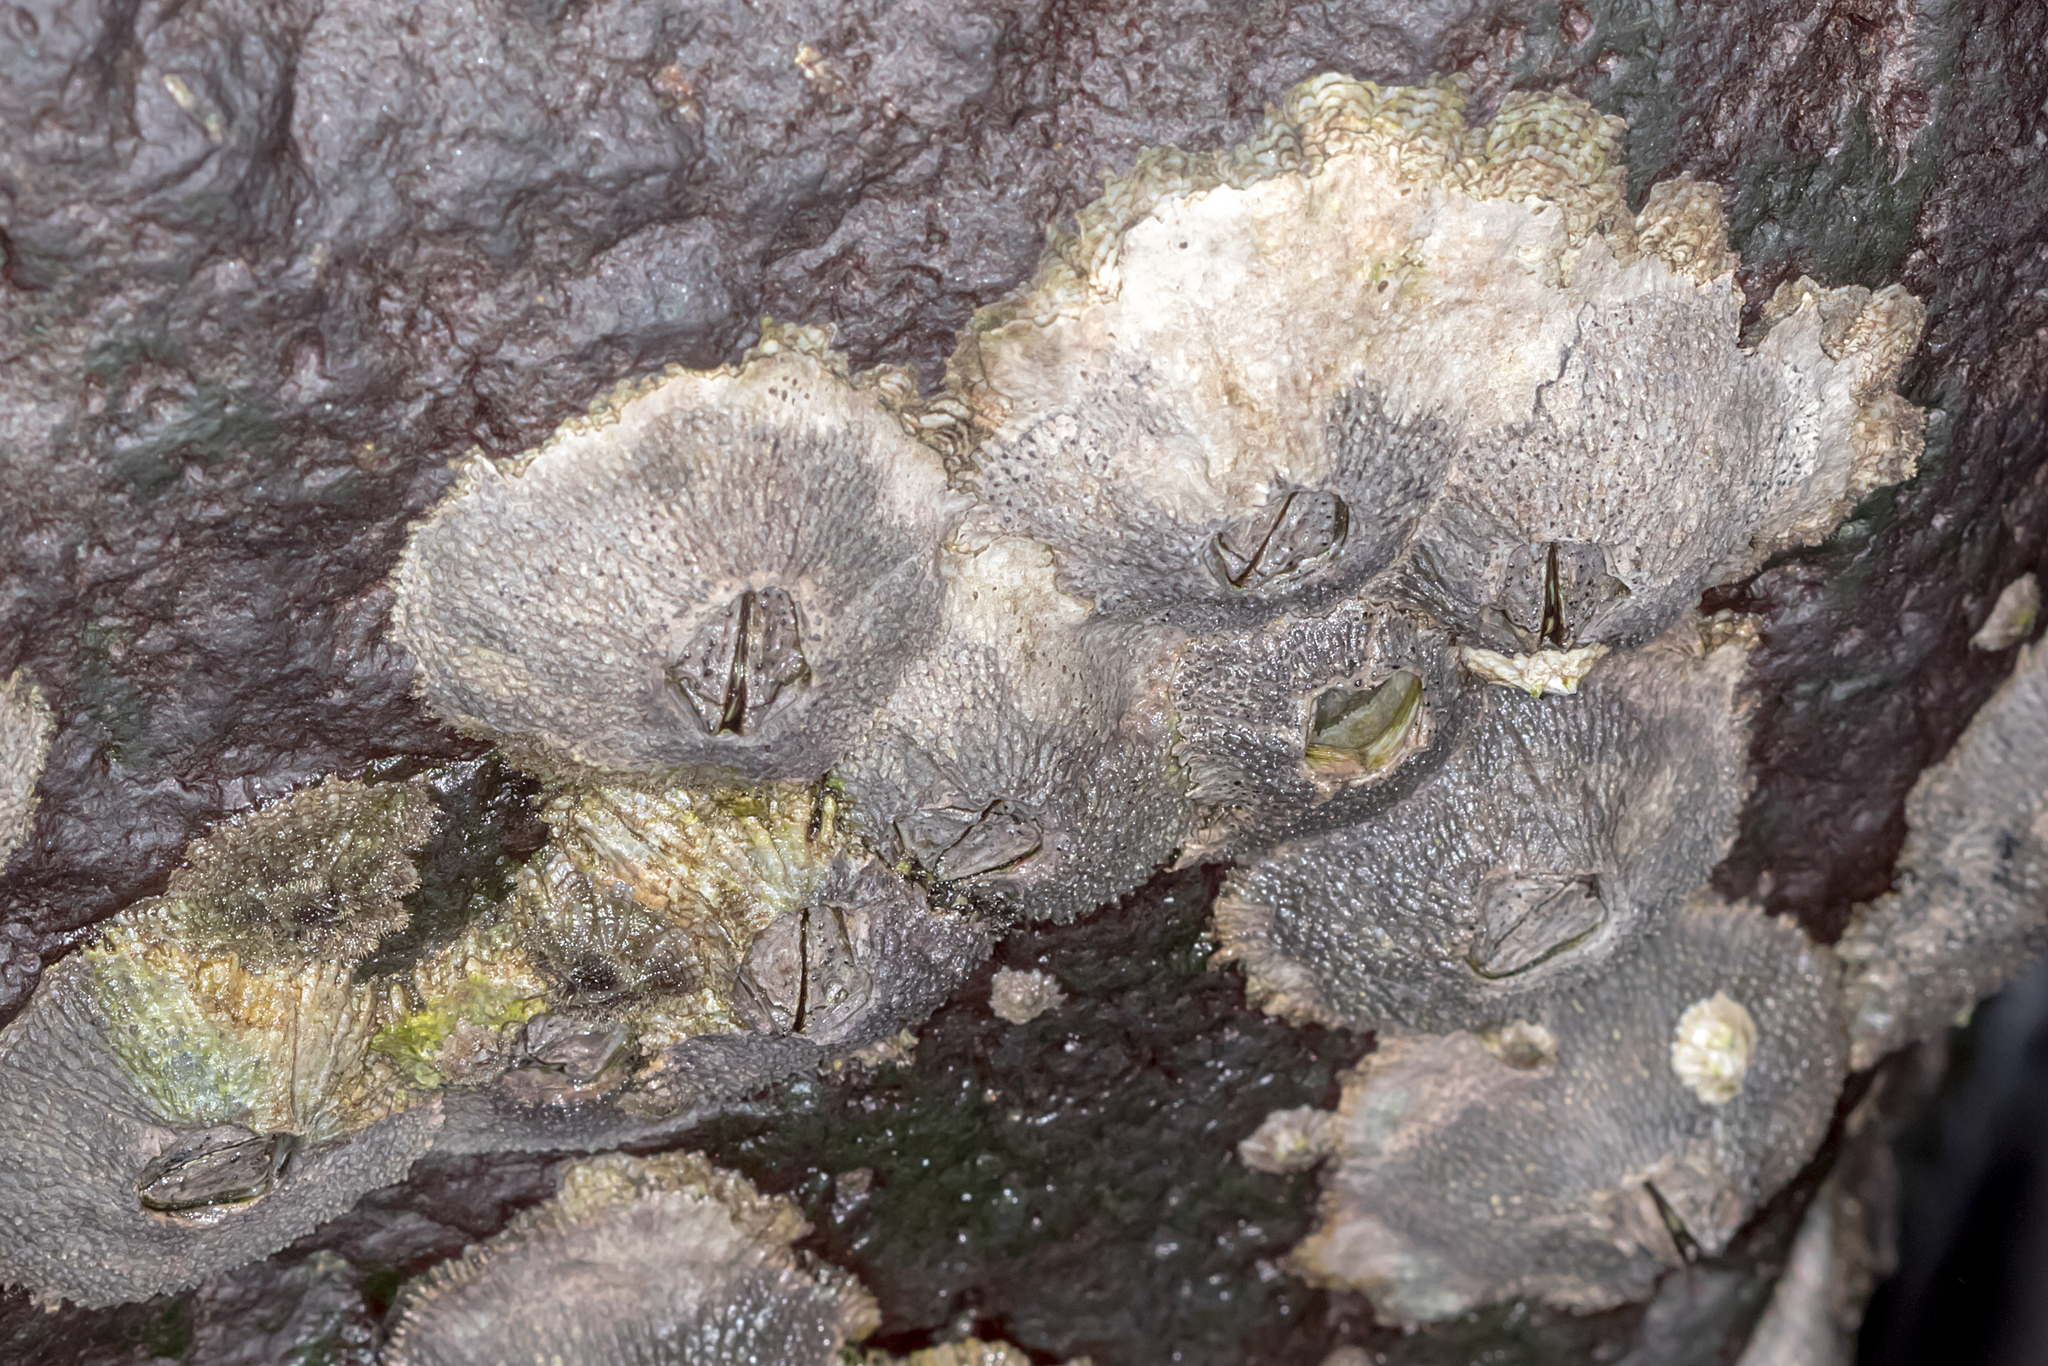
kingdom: Animalia
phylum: Arthropoda
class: Maxillopoda
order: Sessilia
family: Tetraclitidae
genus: Tetraclitella
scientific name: Tetraclitella purpurascens
